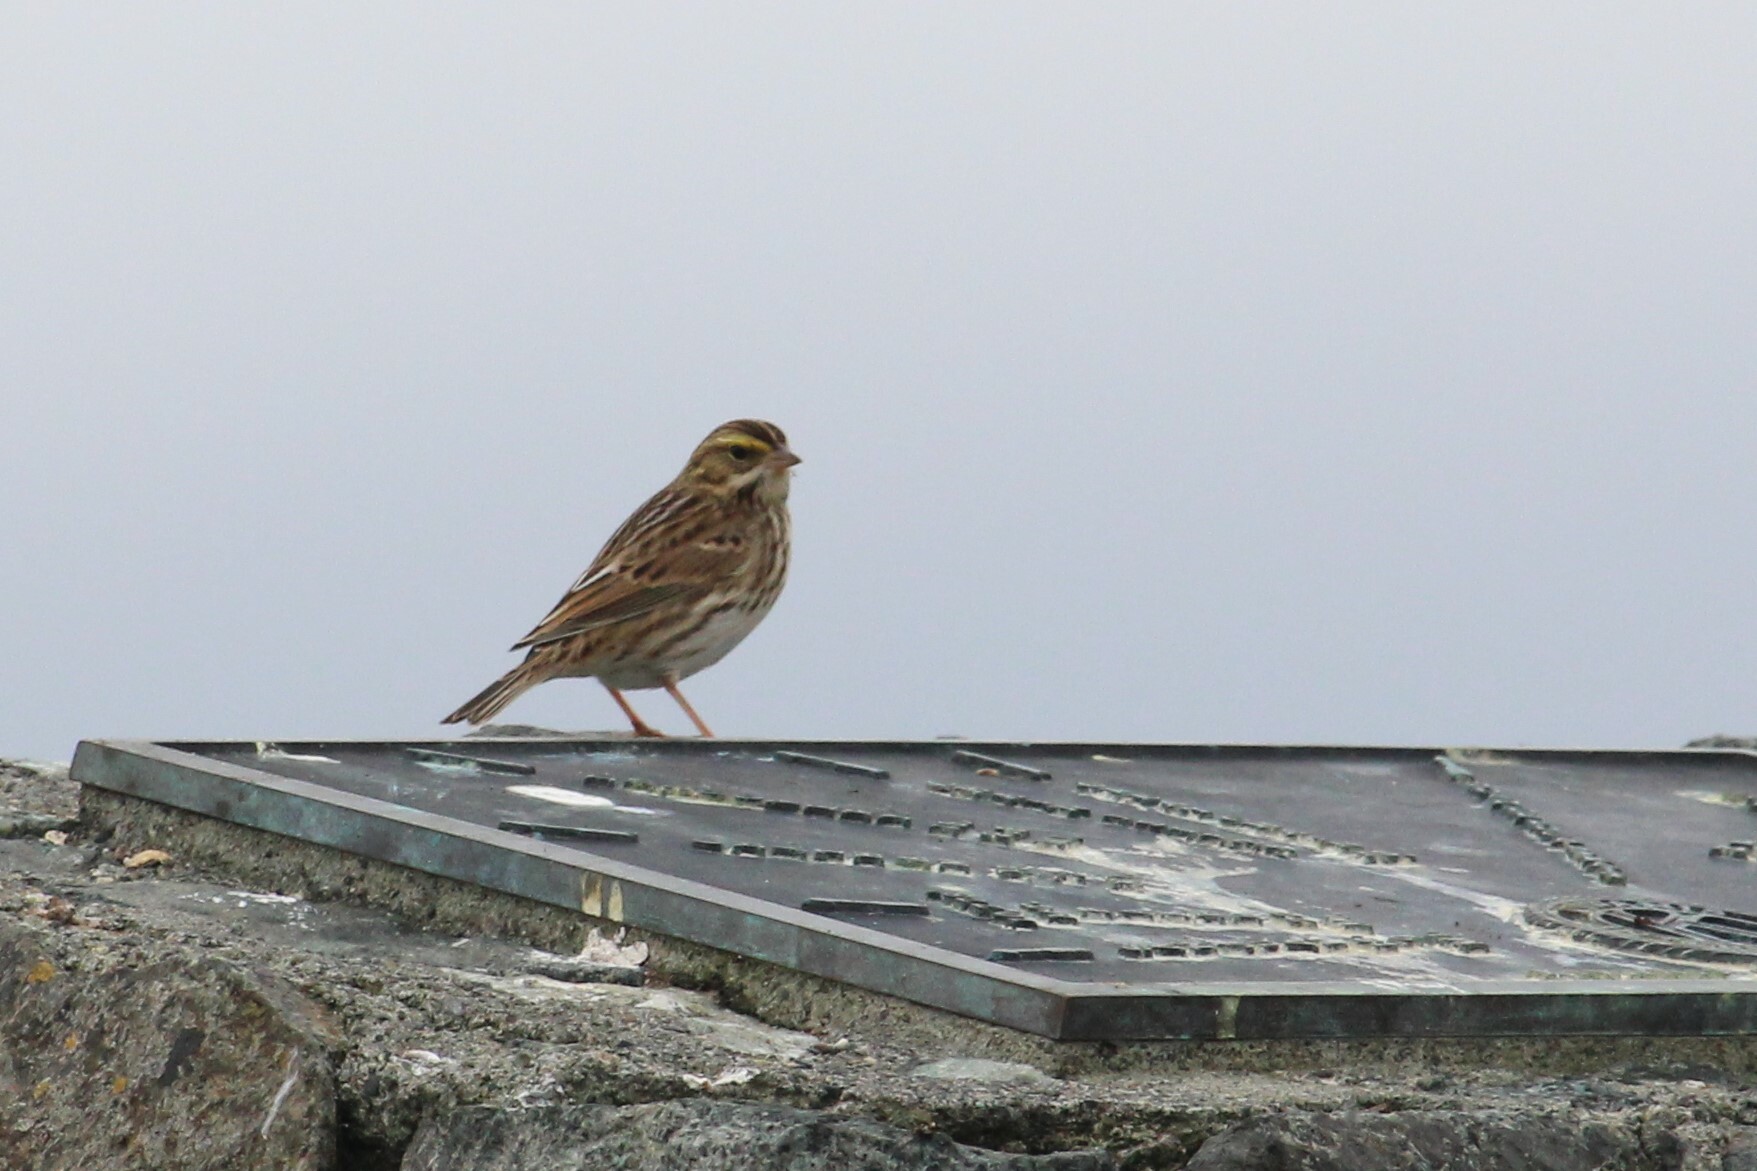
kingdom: Animalia
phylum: Chordata
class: Aves
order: Passeriformes
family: Passerellidae
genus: Passerculus
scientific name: Passerculus sandwichensis
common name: Savannah sparrow
